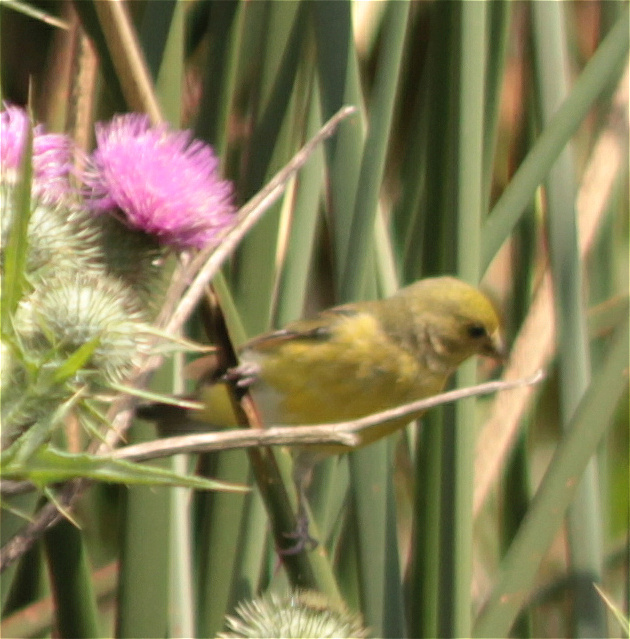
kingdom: Animalia
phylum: Chordata
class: Aves
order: Passeriformes
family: Fringillidae
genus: Spinus
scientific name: Spinus psaltria
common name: Lesser goldfinch
